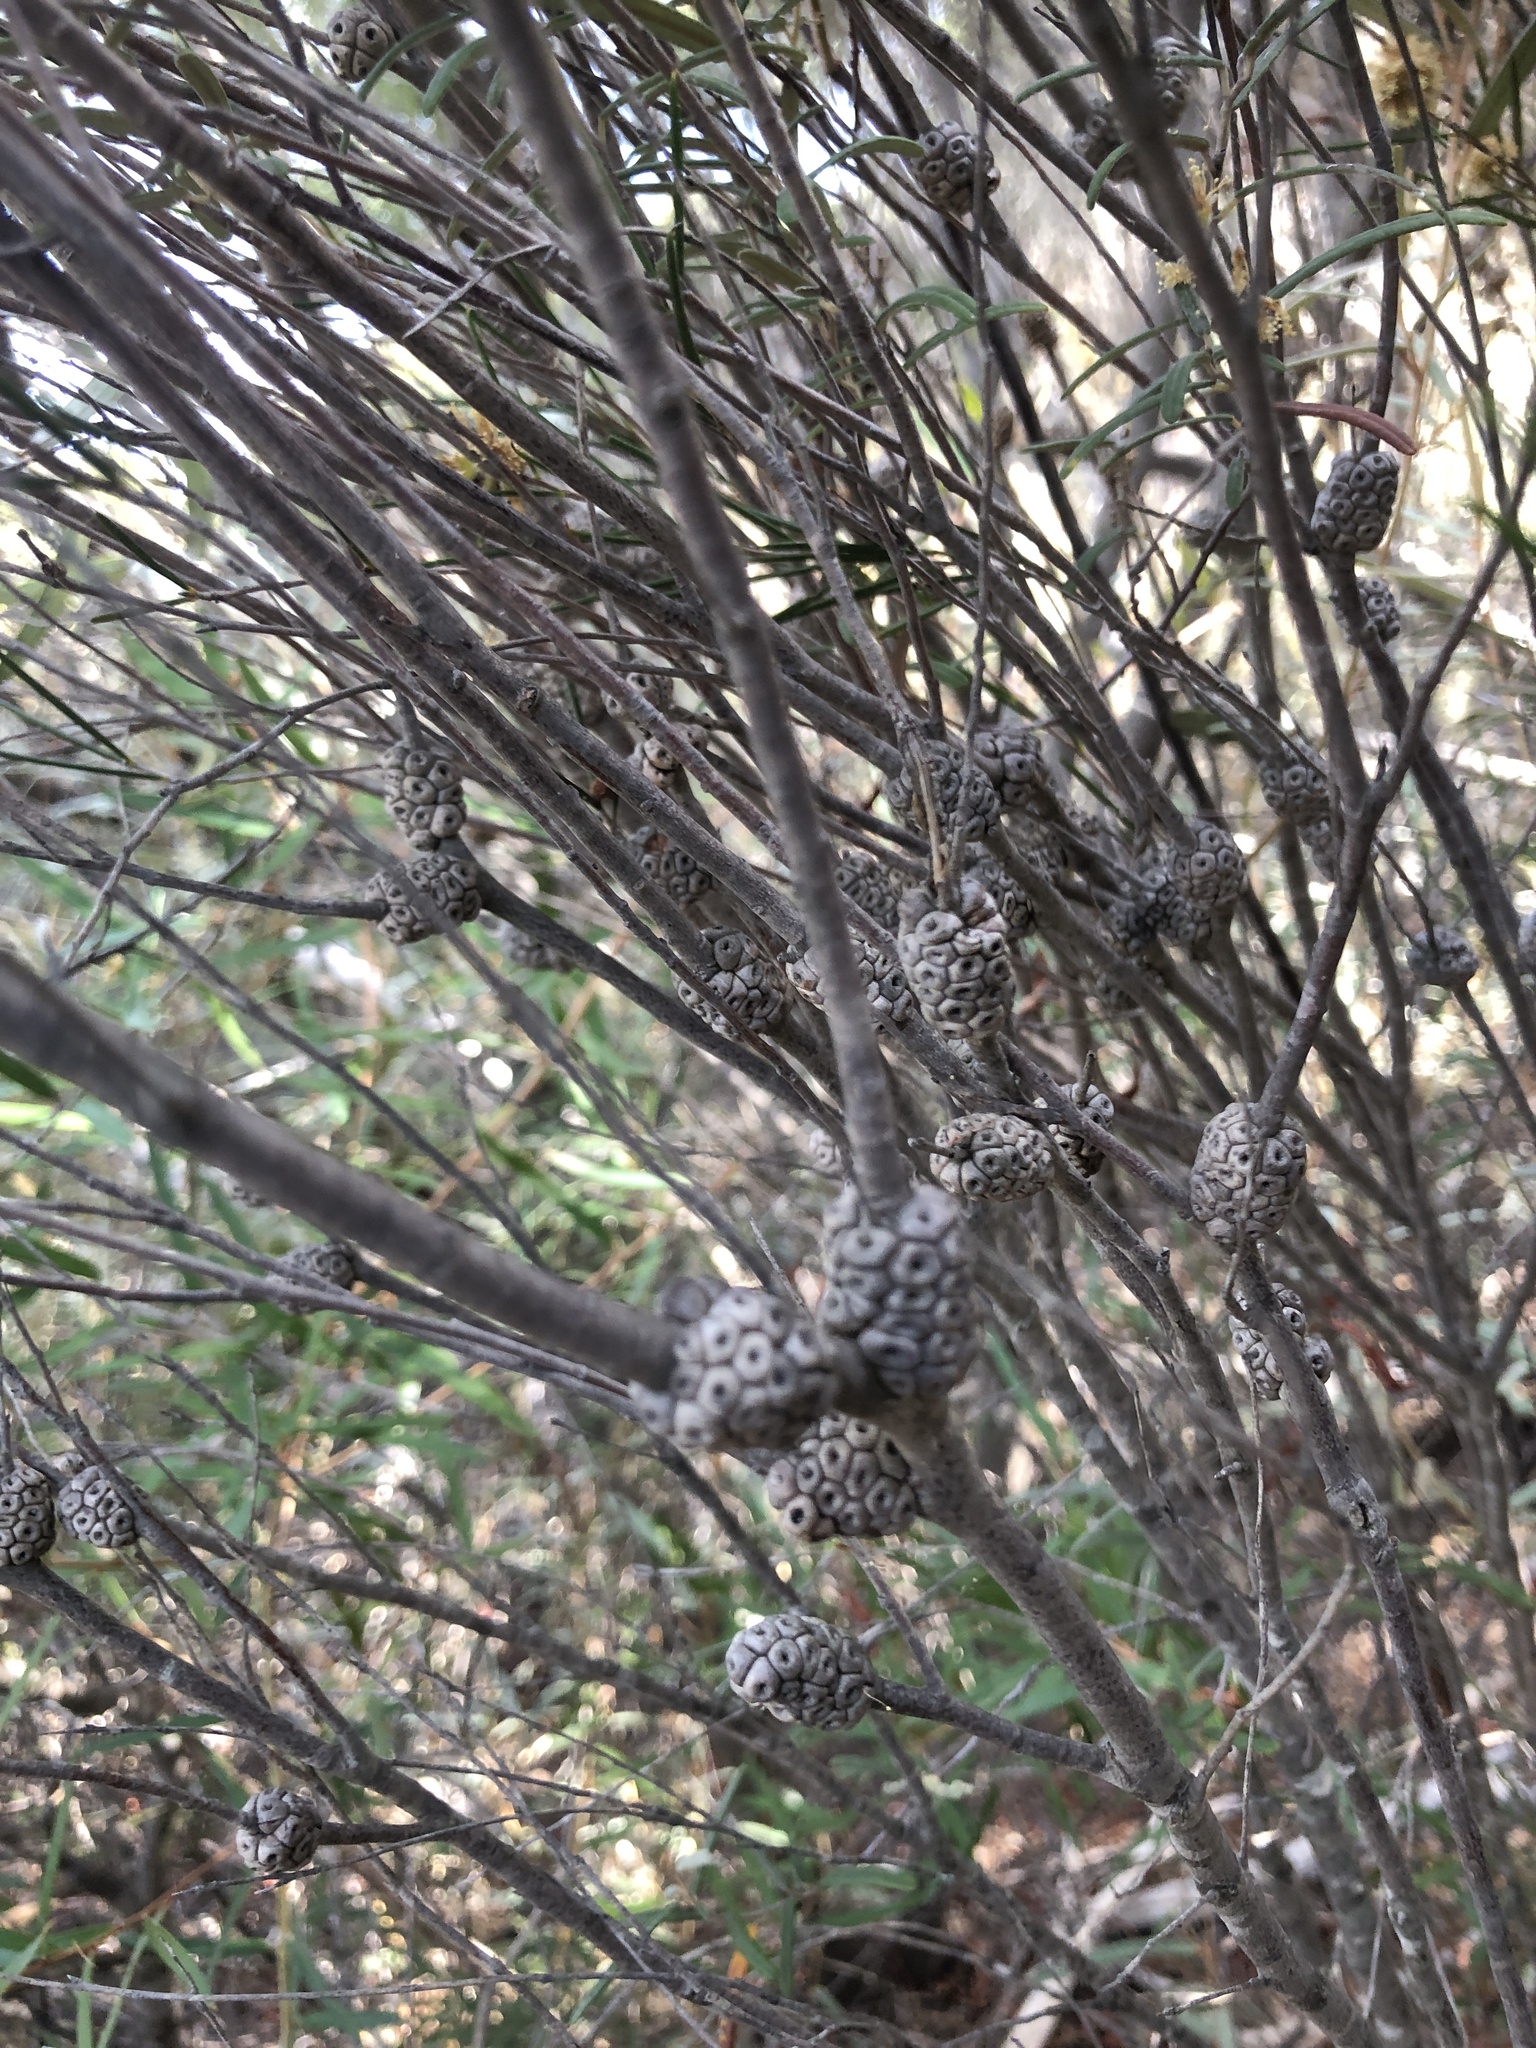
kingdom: Plantae
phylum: Tracheophyta
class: Magnoliopsida
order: Myrtales
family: Myrtaceae
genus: Melaleuca
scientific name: Melaleuca uncinata
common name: Broom honey myrtle
